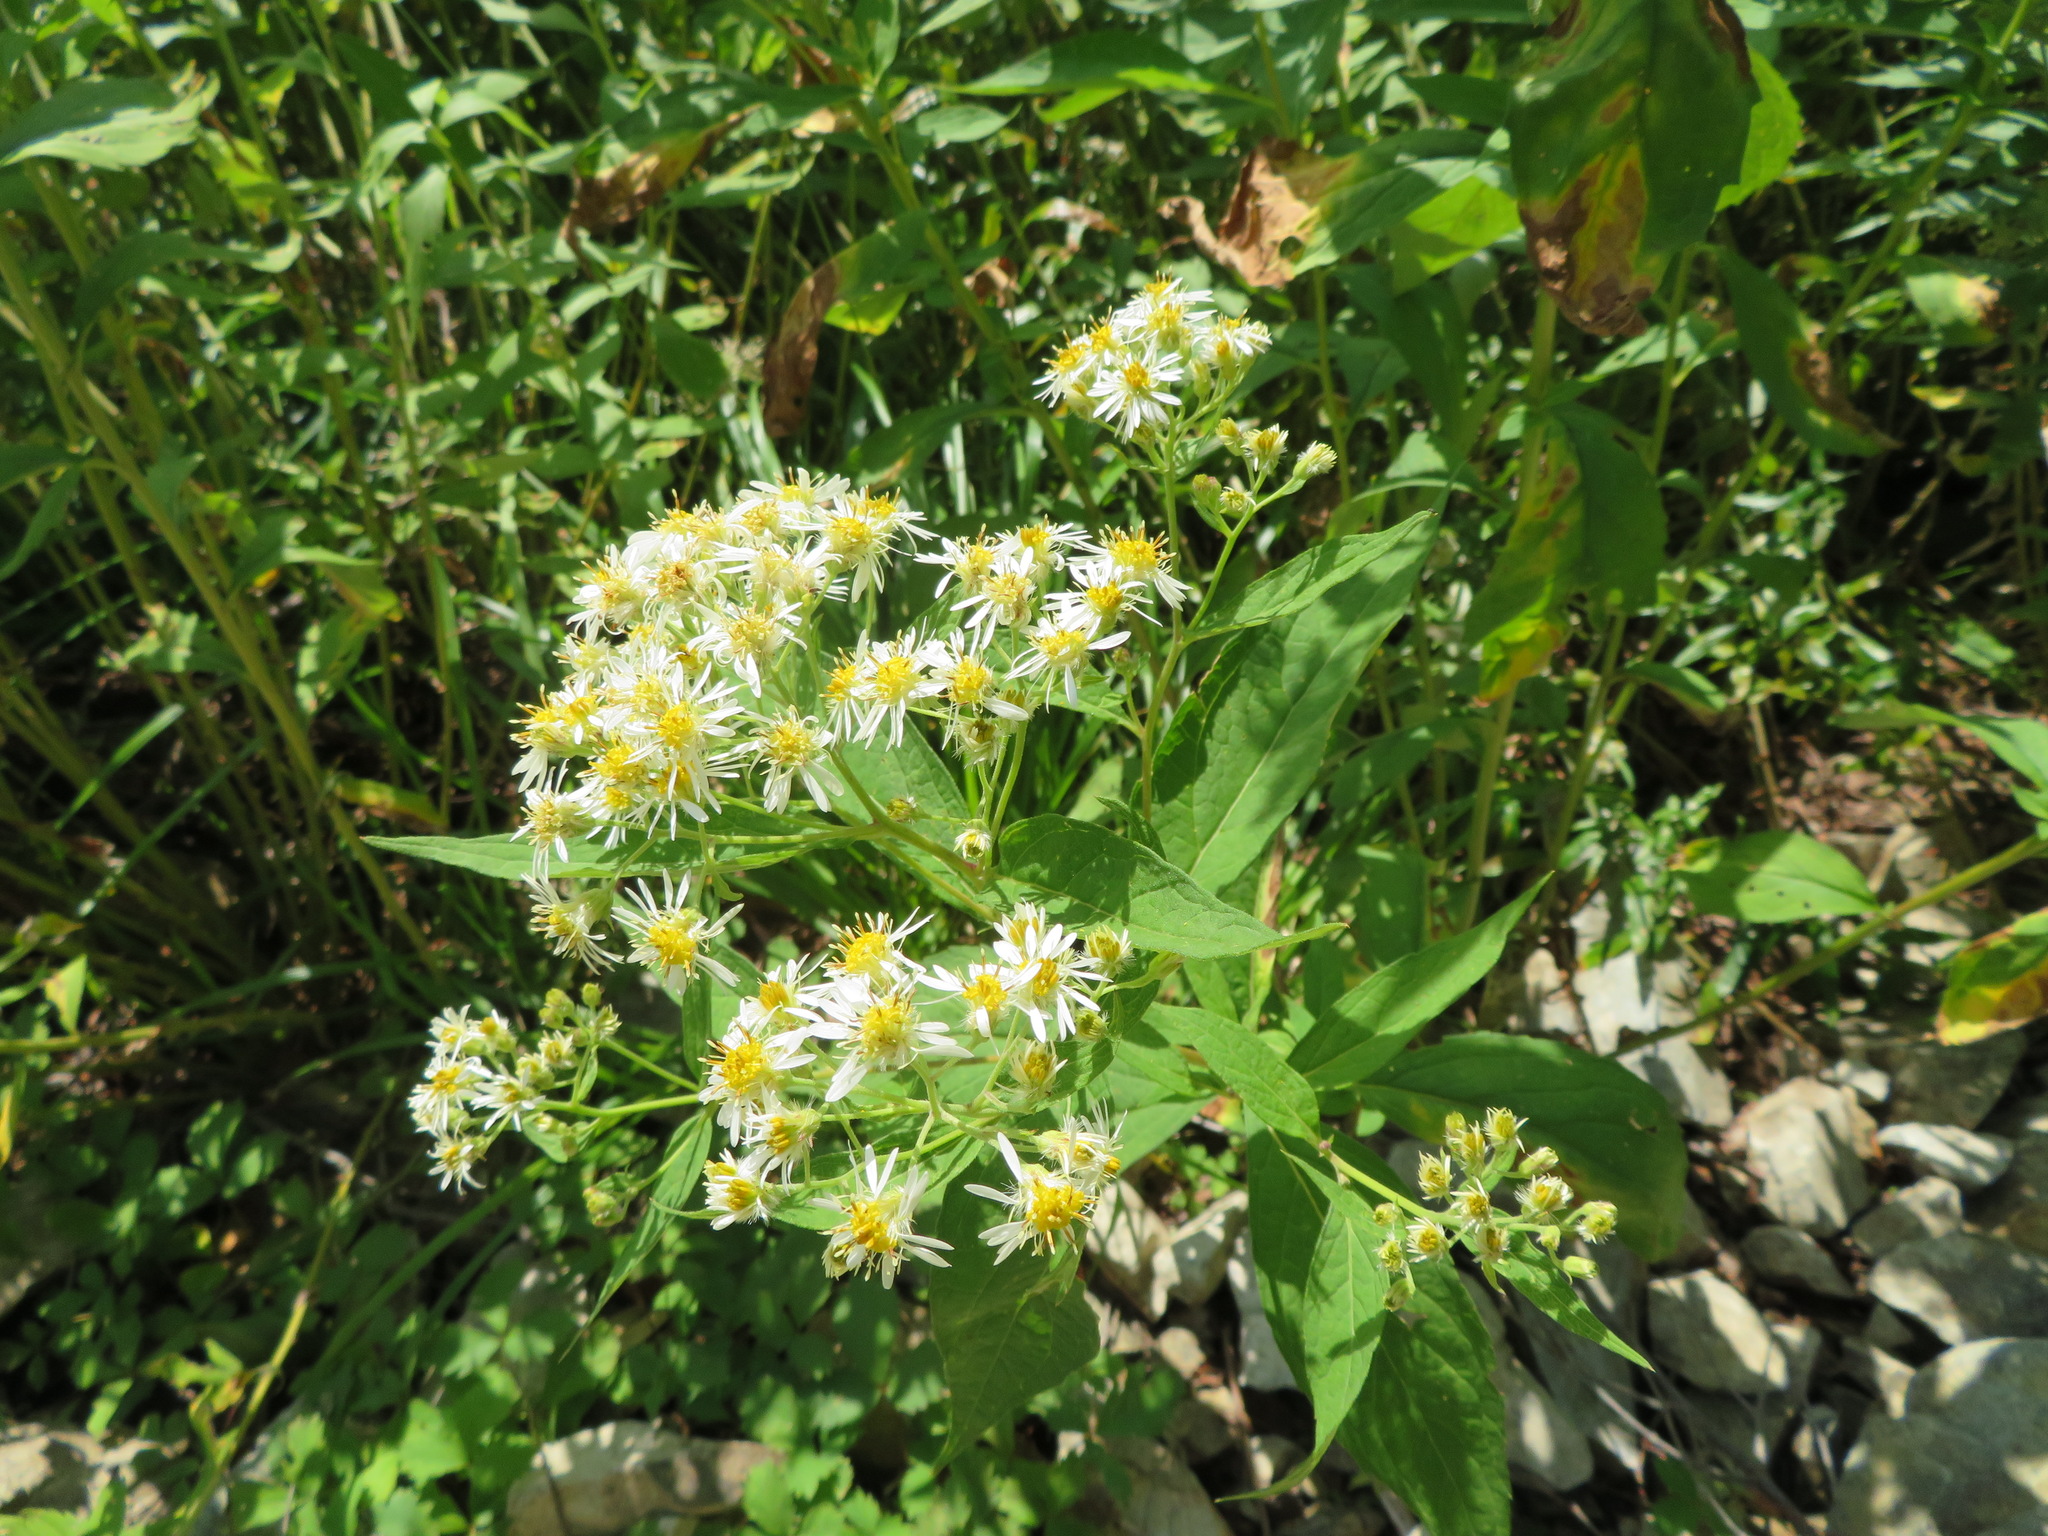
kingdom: Plantae
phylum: Tracheophyta
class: Magnoliopsida
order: Asterales
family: Asteraceae
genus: Kitamuria
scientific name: Kitamuria glehnii
